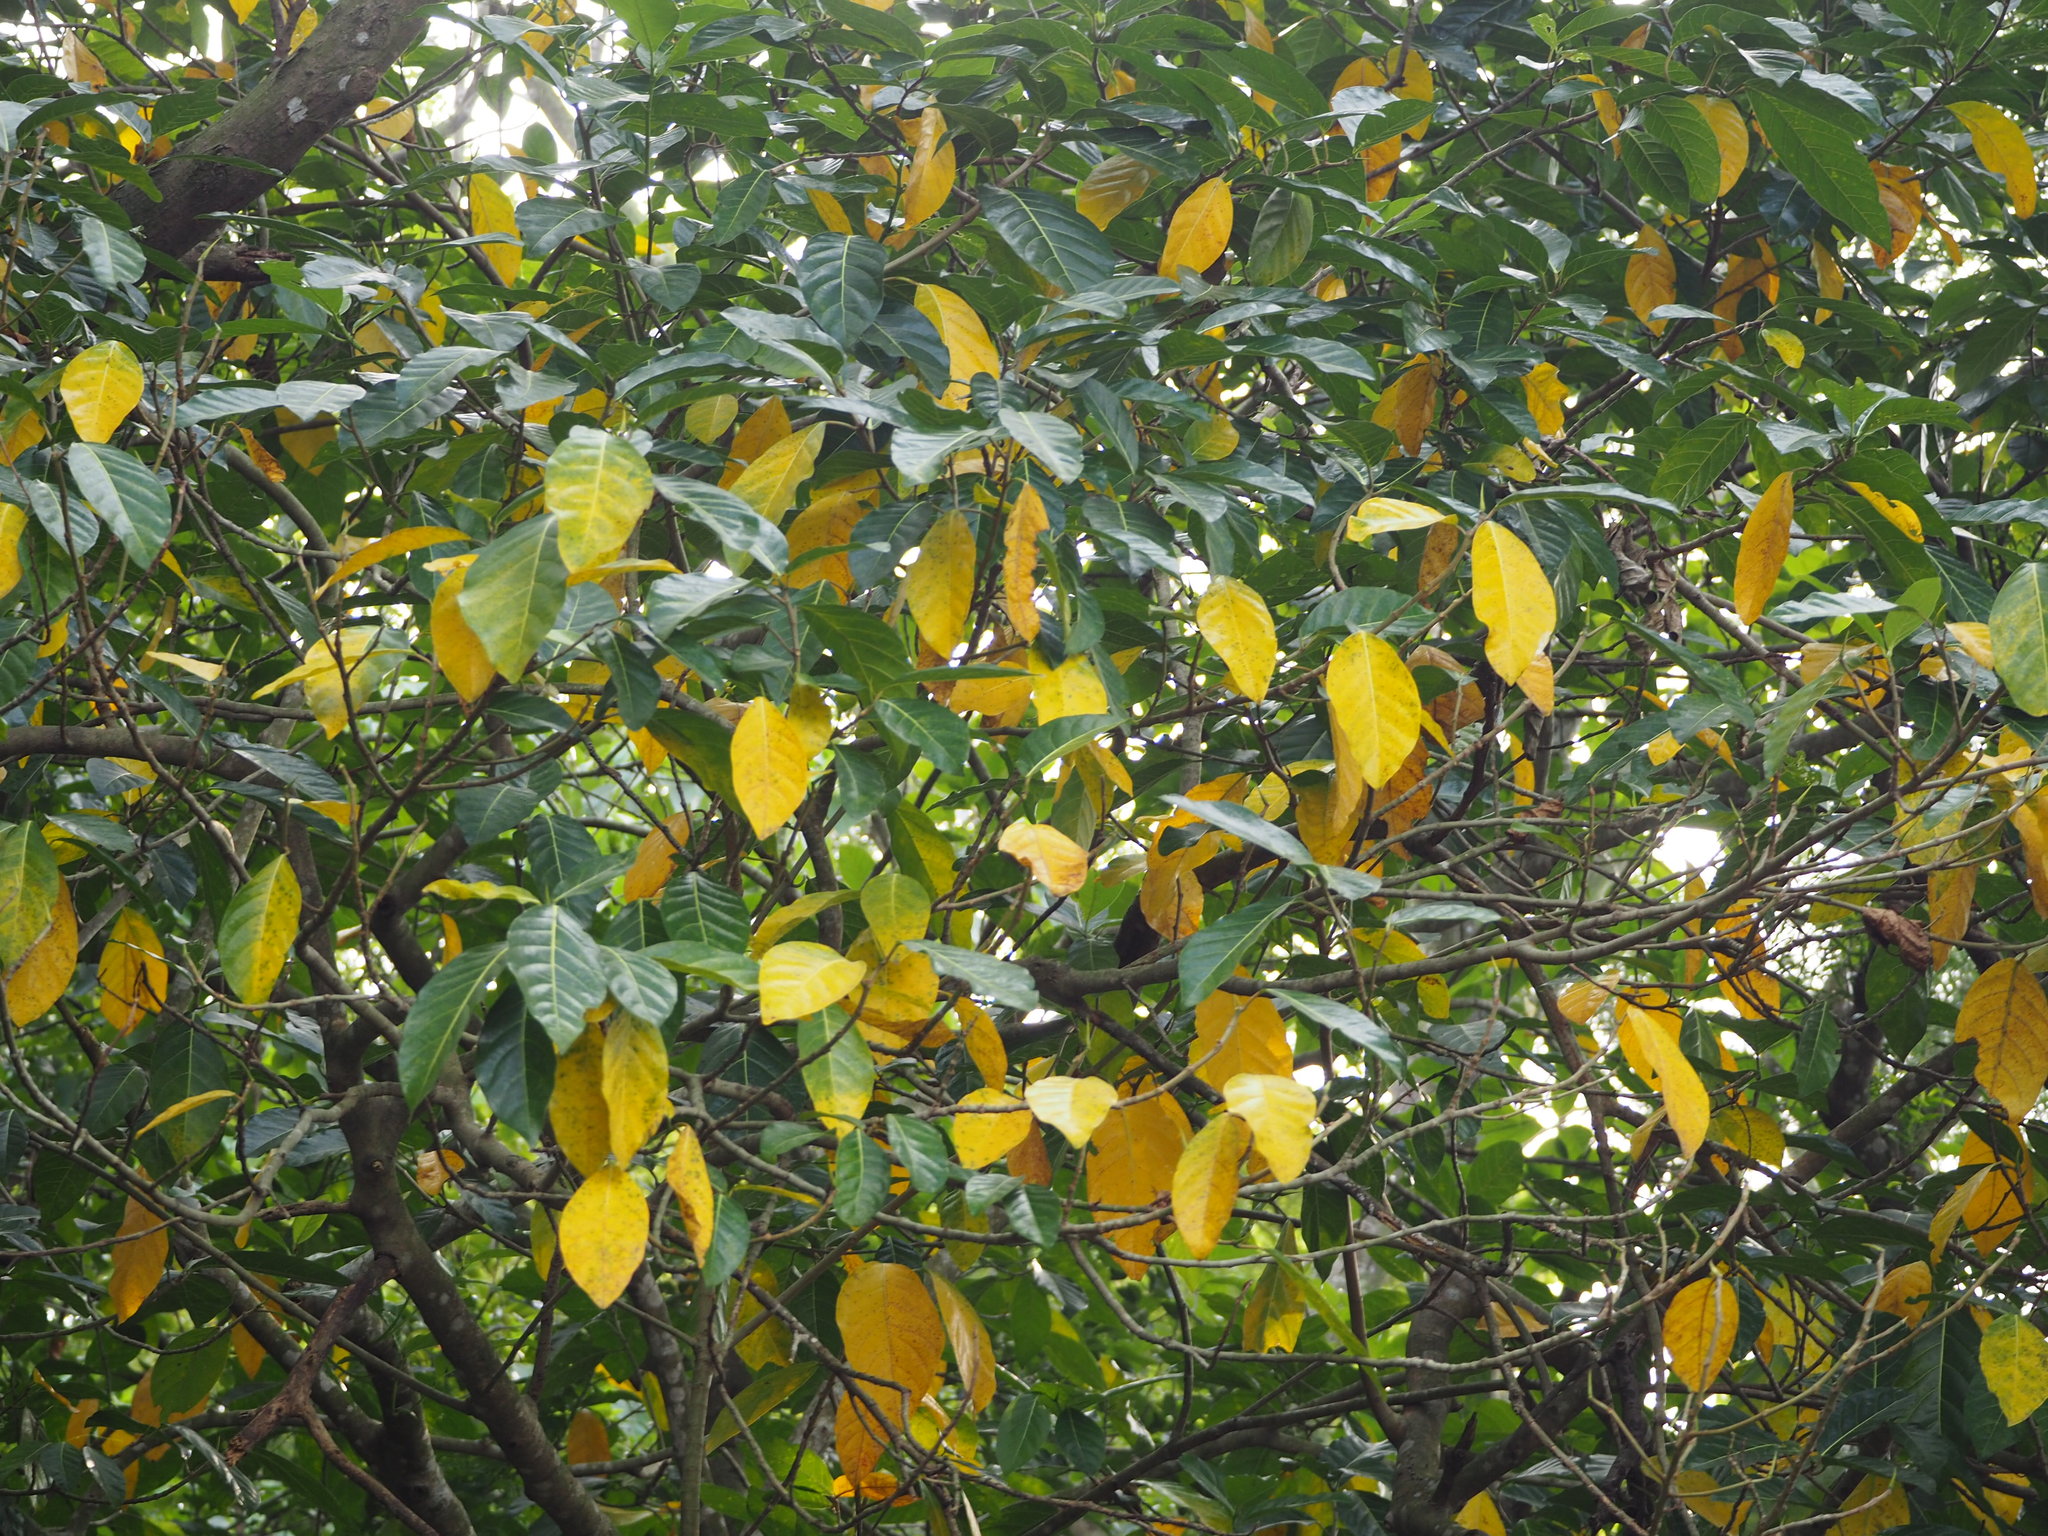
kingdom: Plantae
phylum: Tracheophyta
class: Magnoliopsida
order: Rosales
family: Moraceae
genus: Ficus
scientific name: Ficus septica
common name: Septic fig
